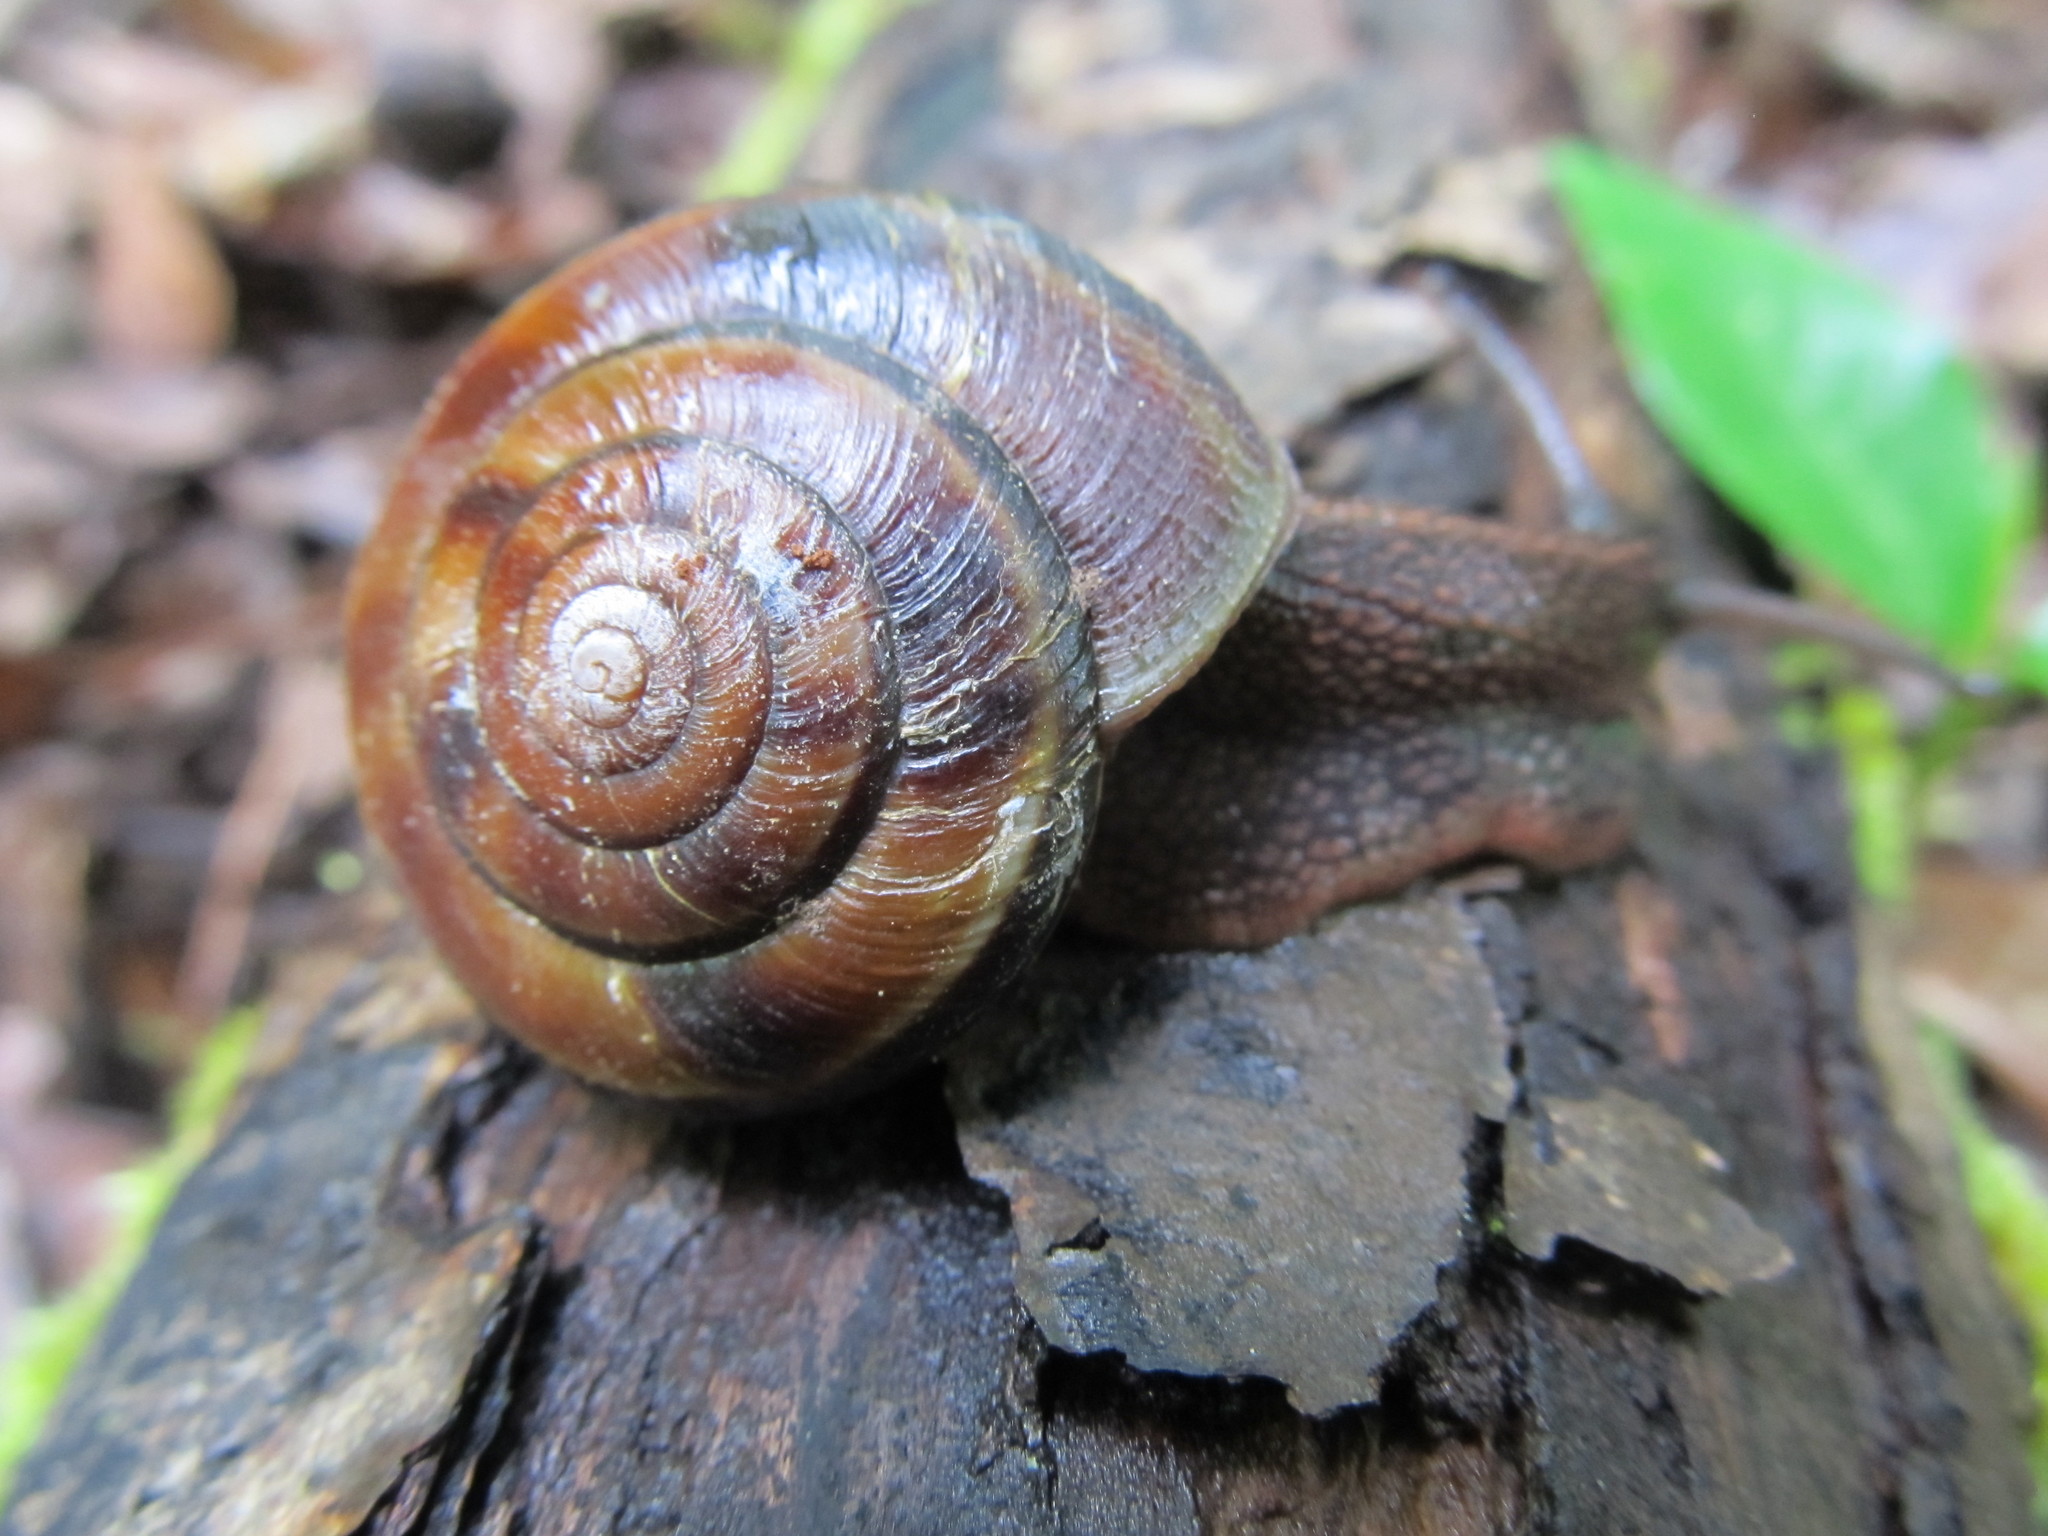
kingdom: Animalia
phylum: Mollusca
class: Gastropoda
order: Stylommatophora
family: Xanthonychidae
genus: Monadenia
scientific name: Monadenia fidelis
